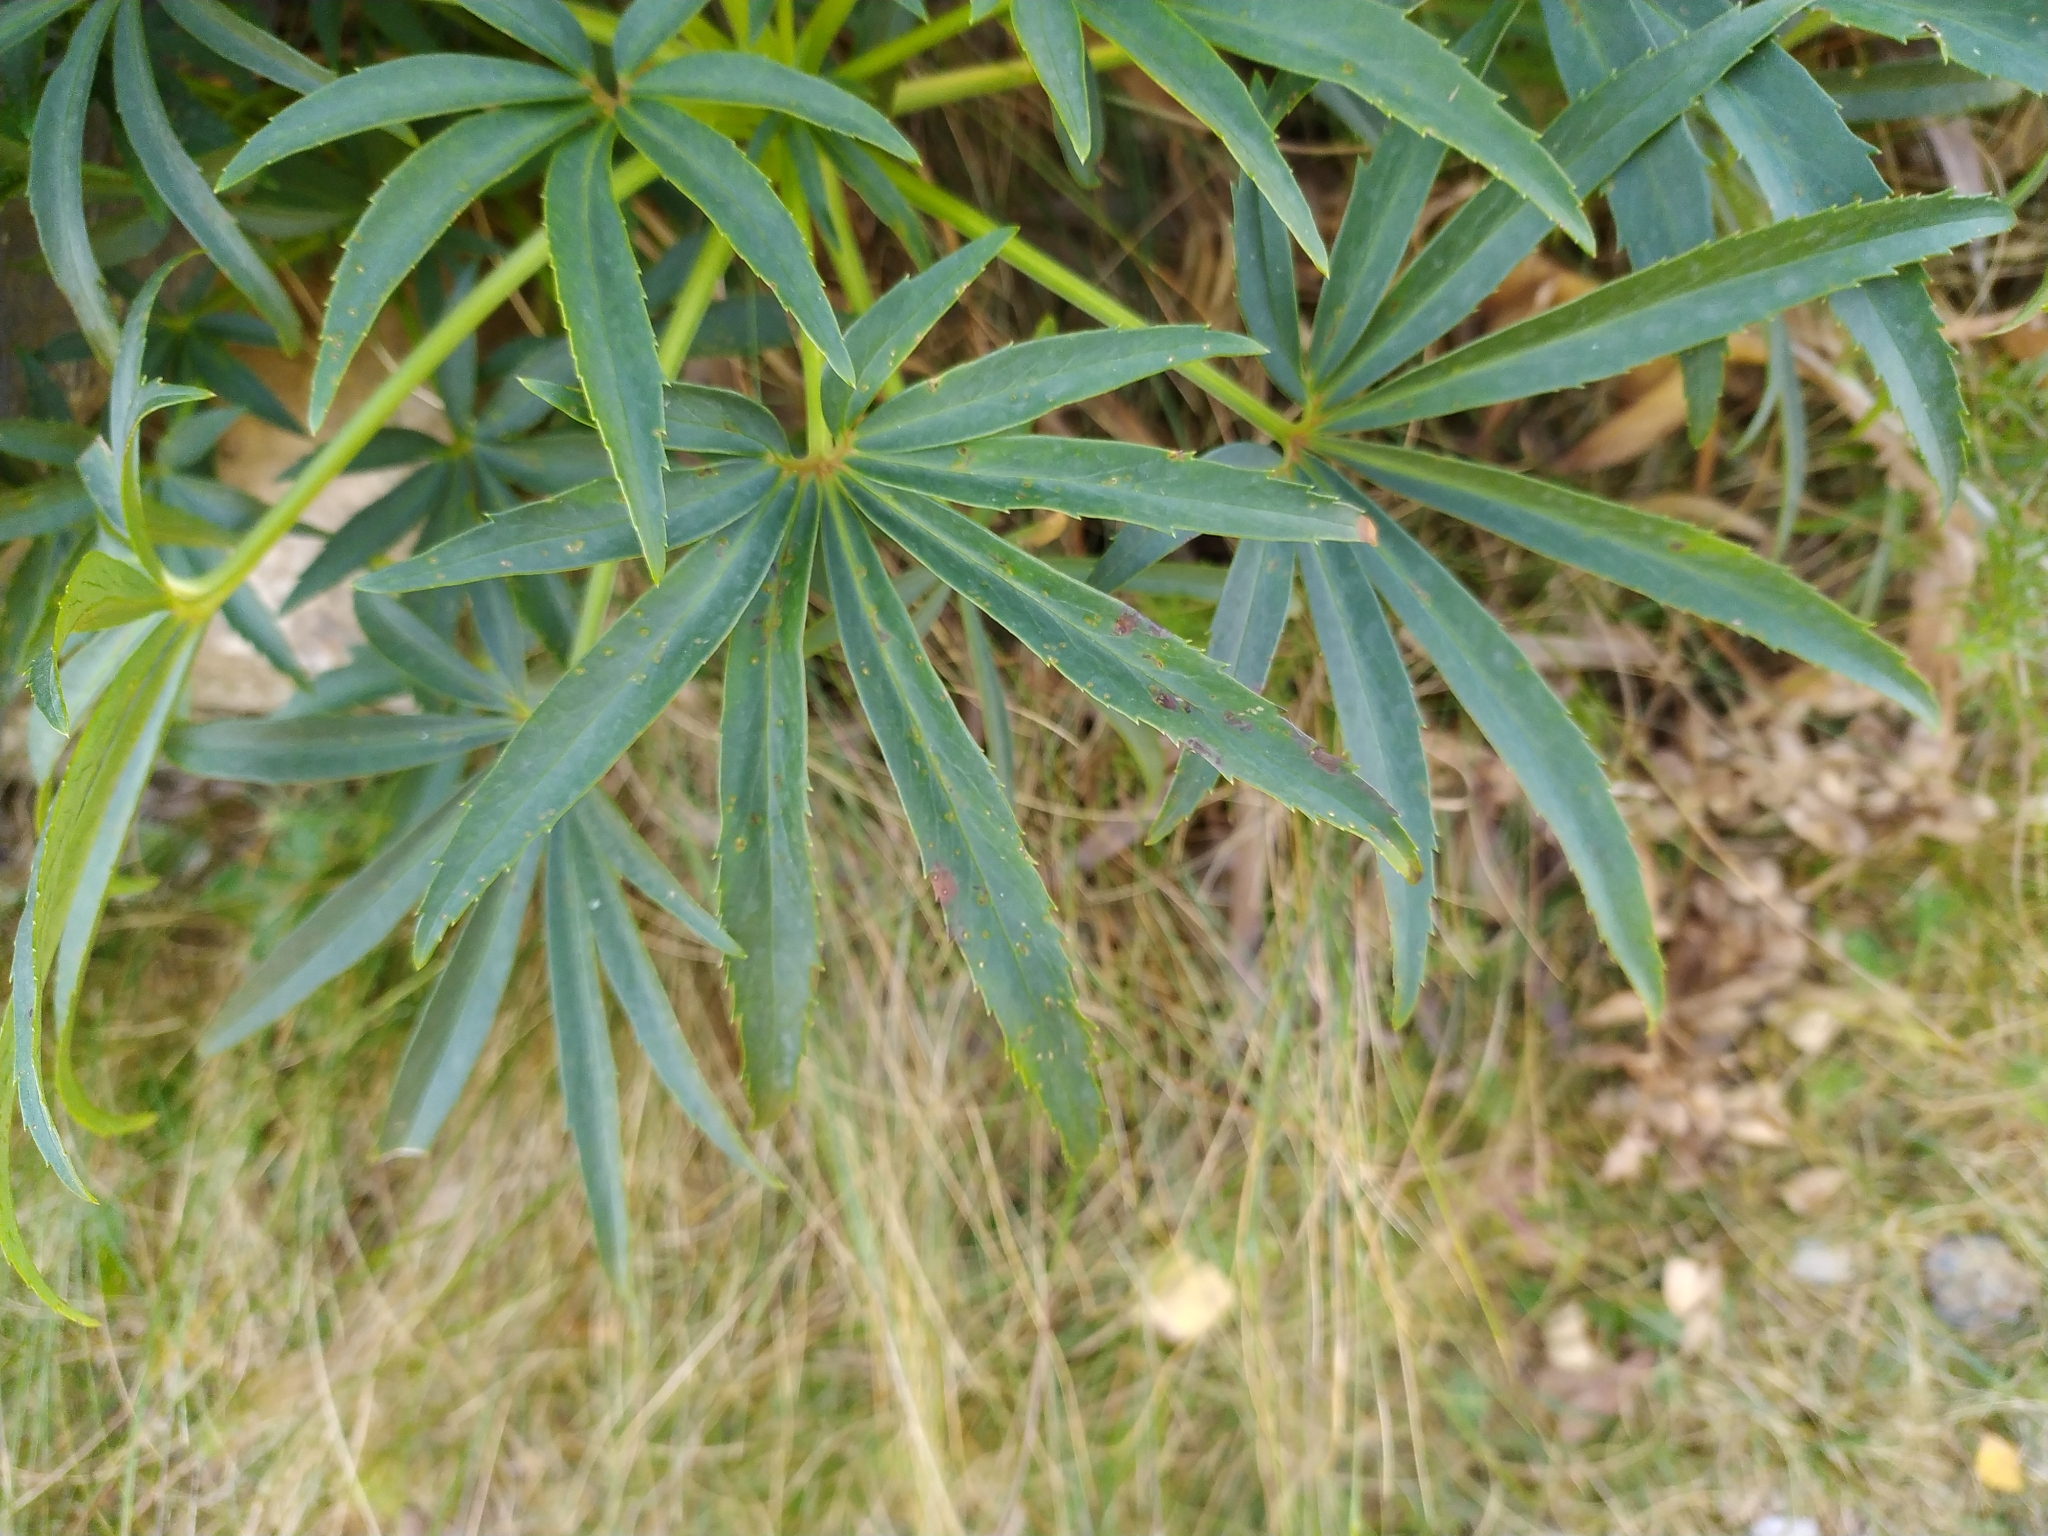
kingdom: Plantae
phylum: Tracheophyta
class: Magnoliopsida
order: Ranunculales
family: Ranunculaceae
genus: Helleborus
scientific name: Helleborus foetidus
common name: Stinking hellebore
